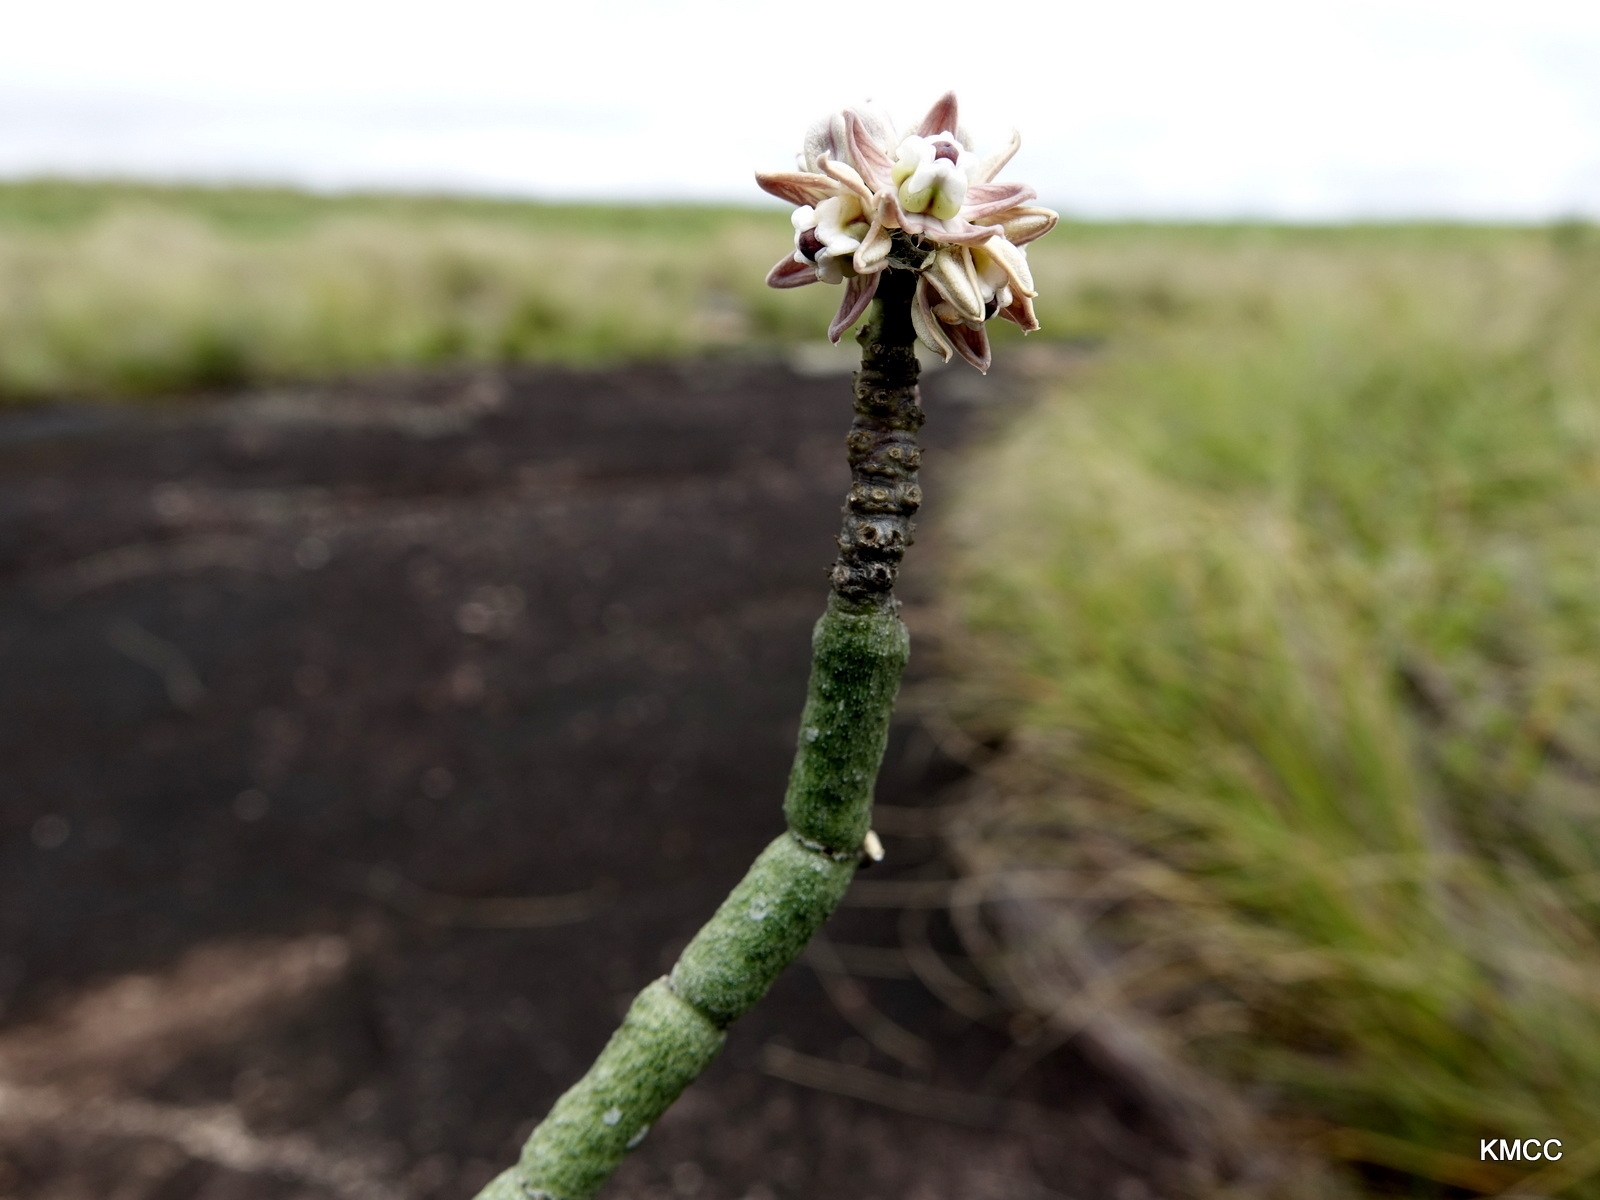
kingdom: Plantae
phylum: Tracheophyta
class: Magnoliopsida
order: Gentianales
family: Apocynaceae
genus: Cynanchum
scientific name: Cynanchum perrieri
